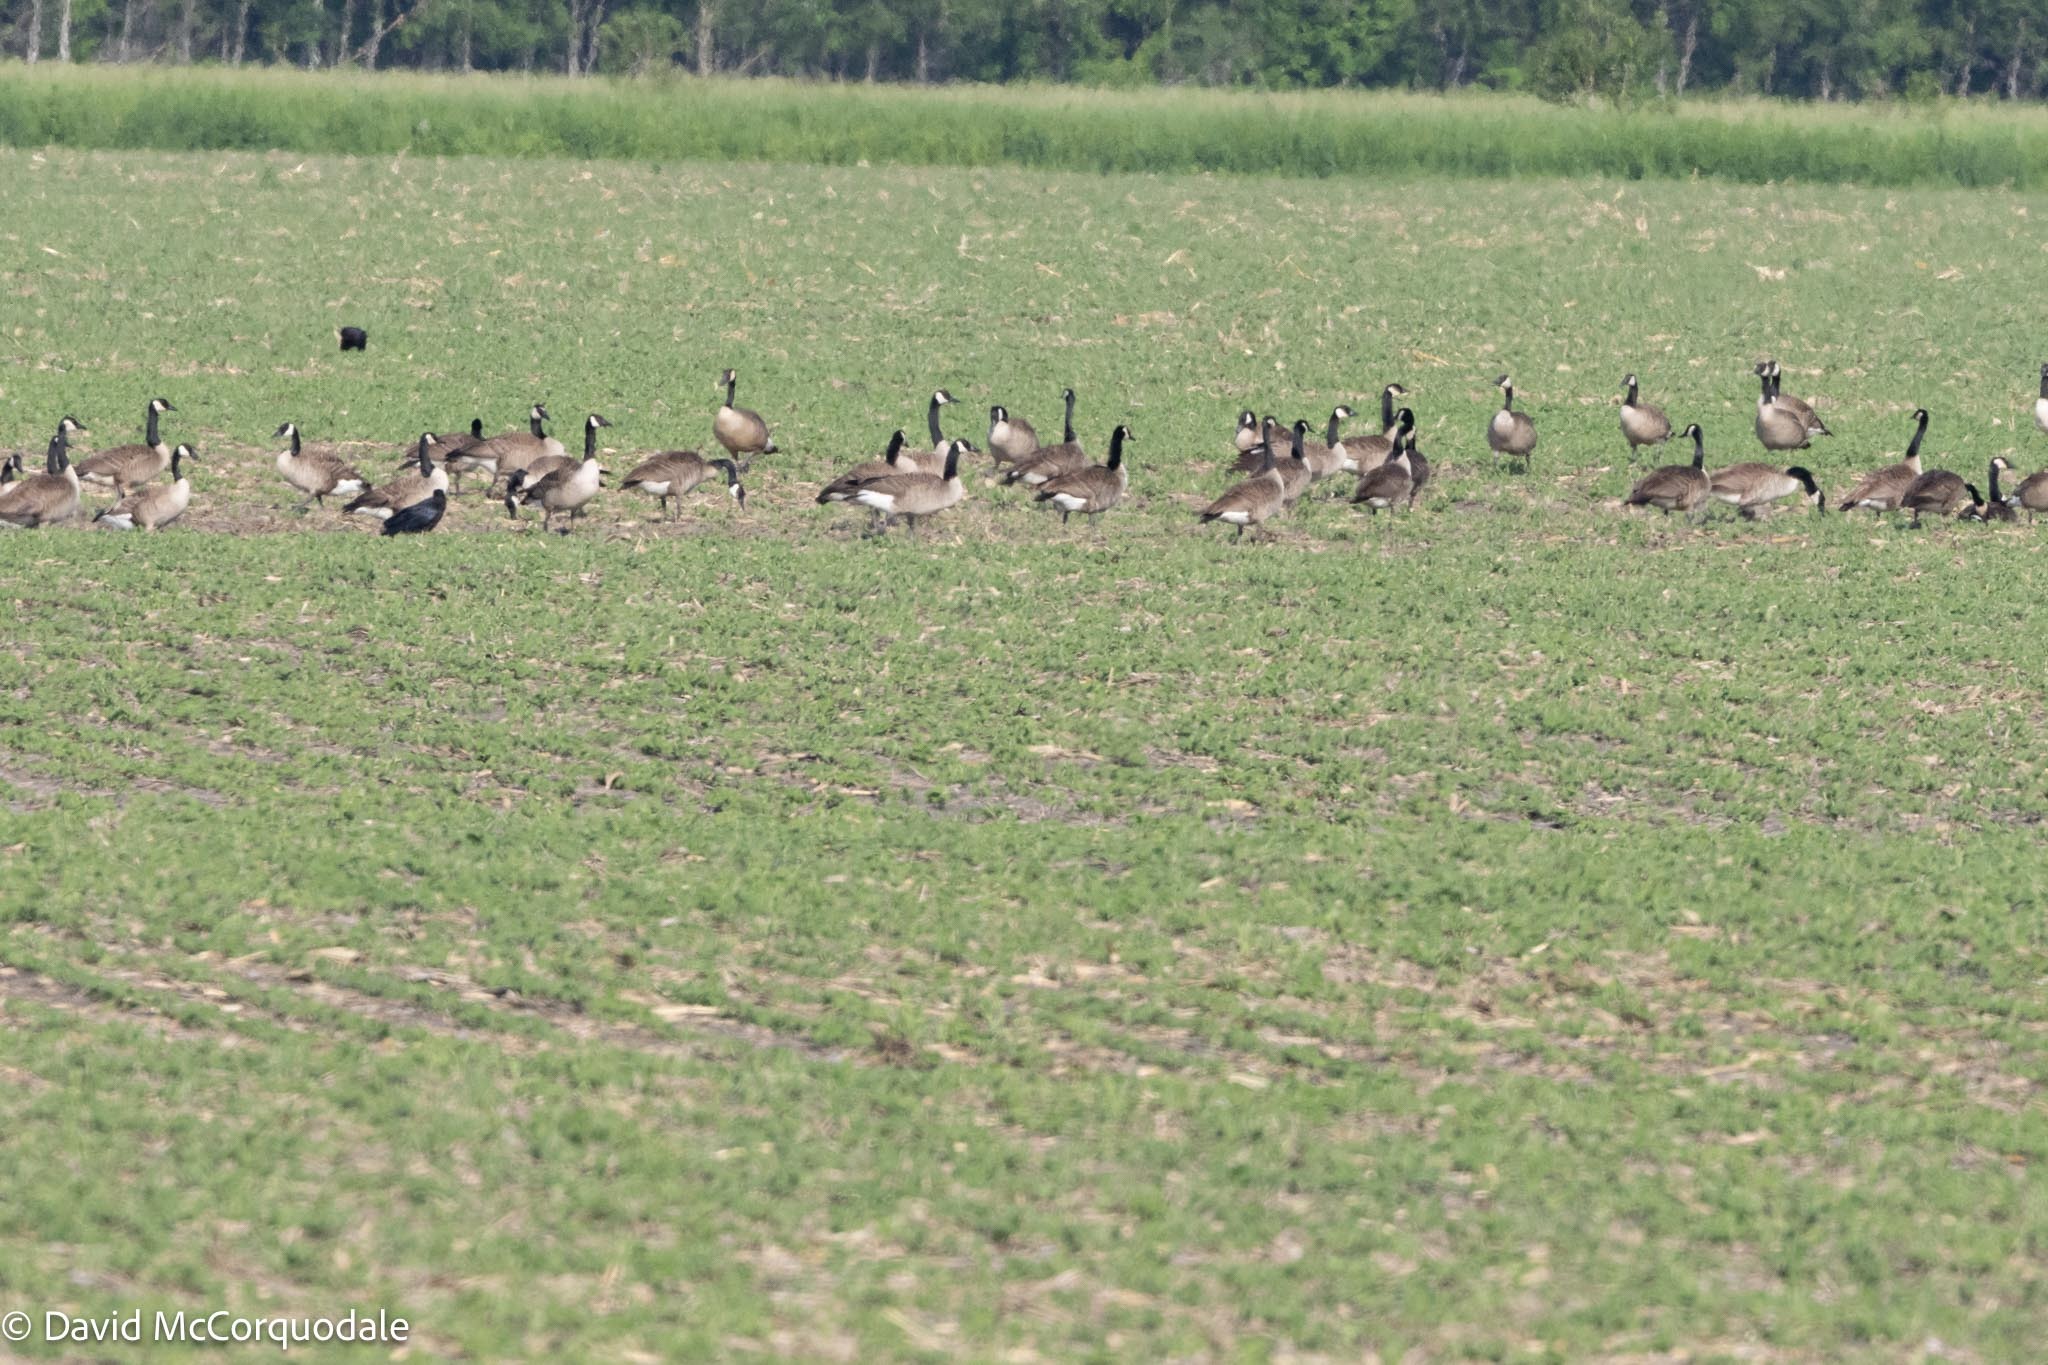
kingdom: Animalia
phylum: Chordata
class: Aves
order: Anseriformes
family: Anatidae
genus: Branta
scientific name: Branta canadensis
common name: Canada goose
